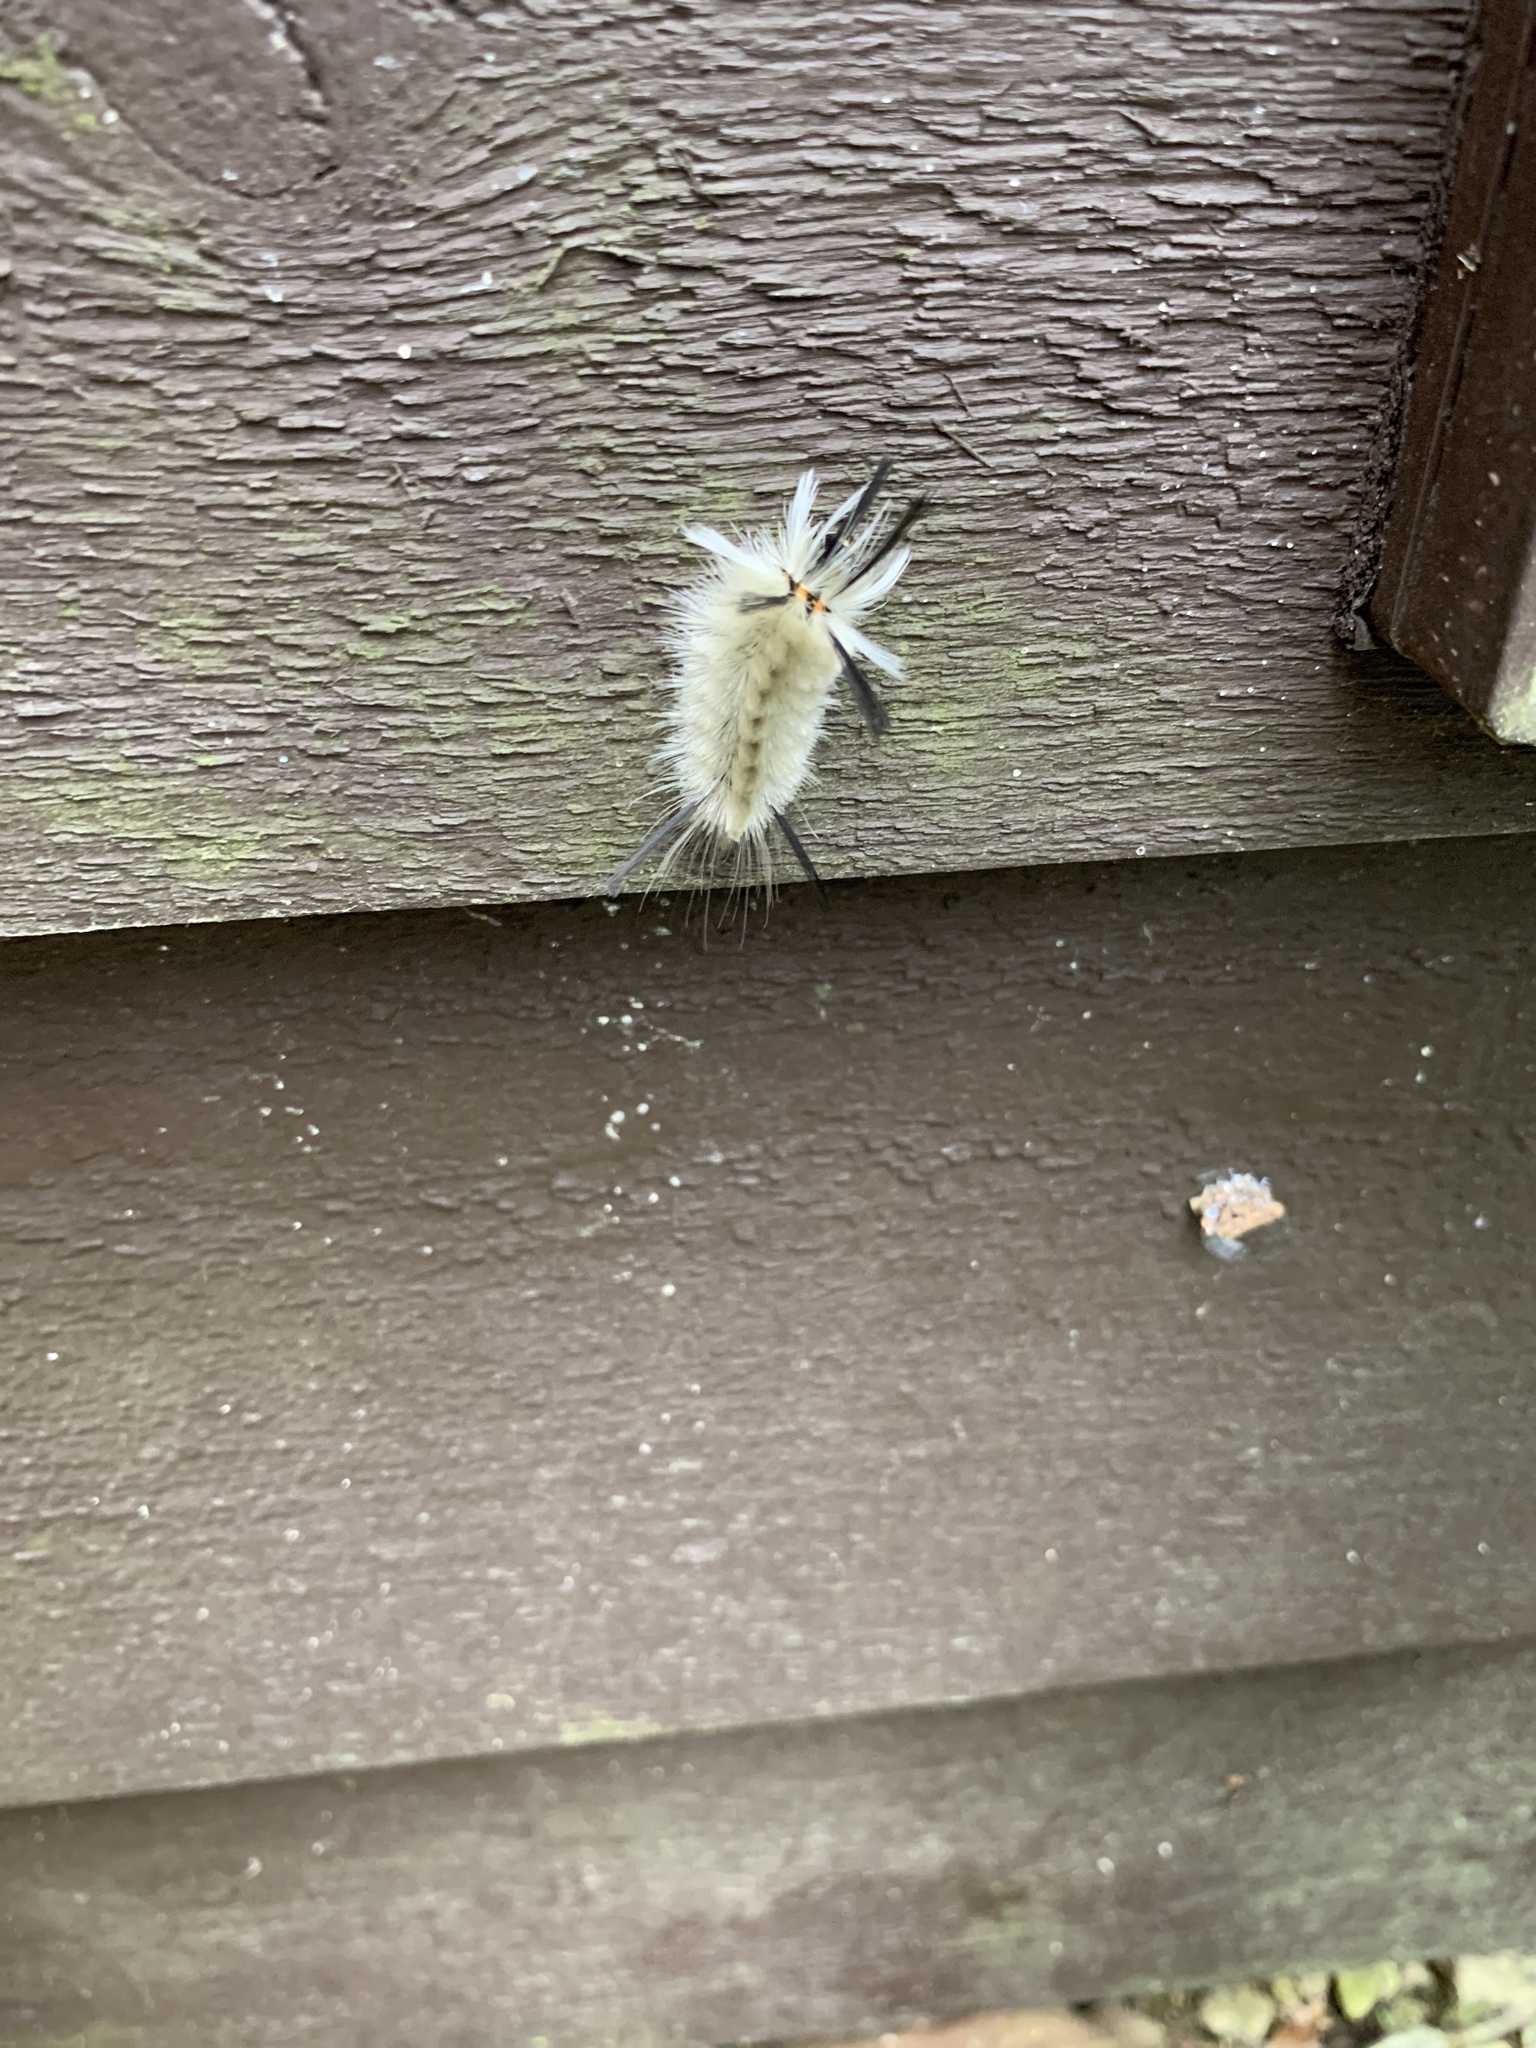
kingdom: Animalia
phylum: Arthropoda
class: Insecta
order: Lepidoptera
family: Erebidae
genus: Halysidota
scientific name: Halysidota tessellaris
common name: Banded tussock moth
